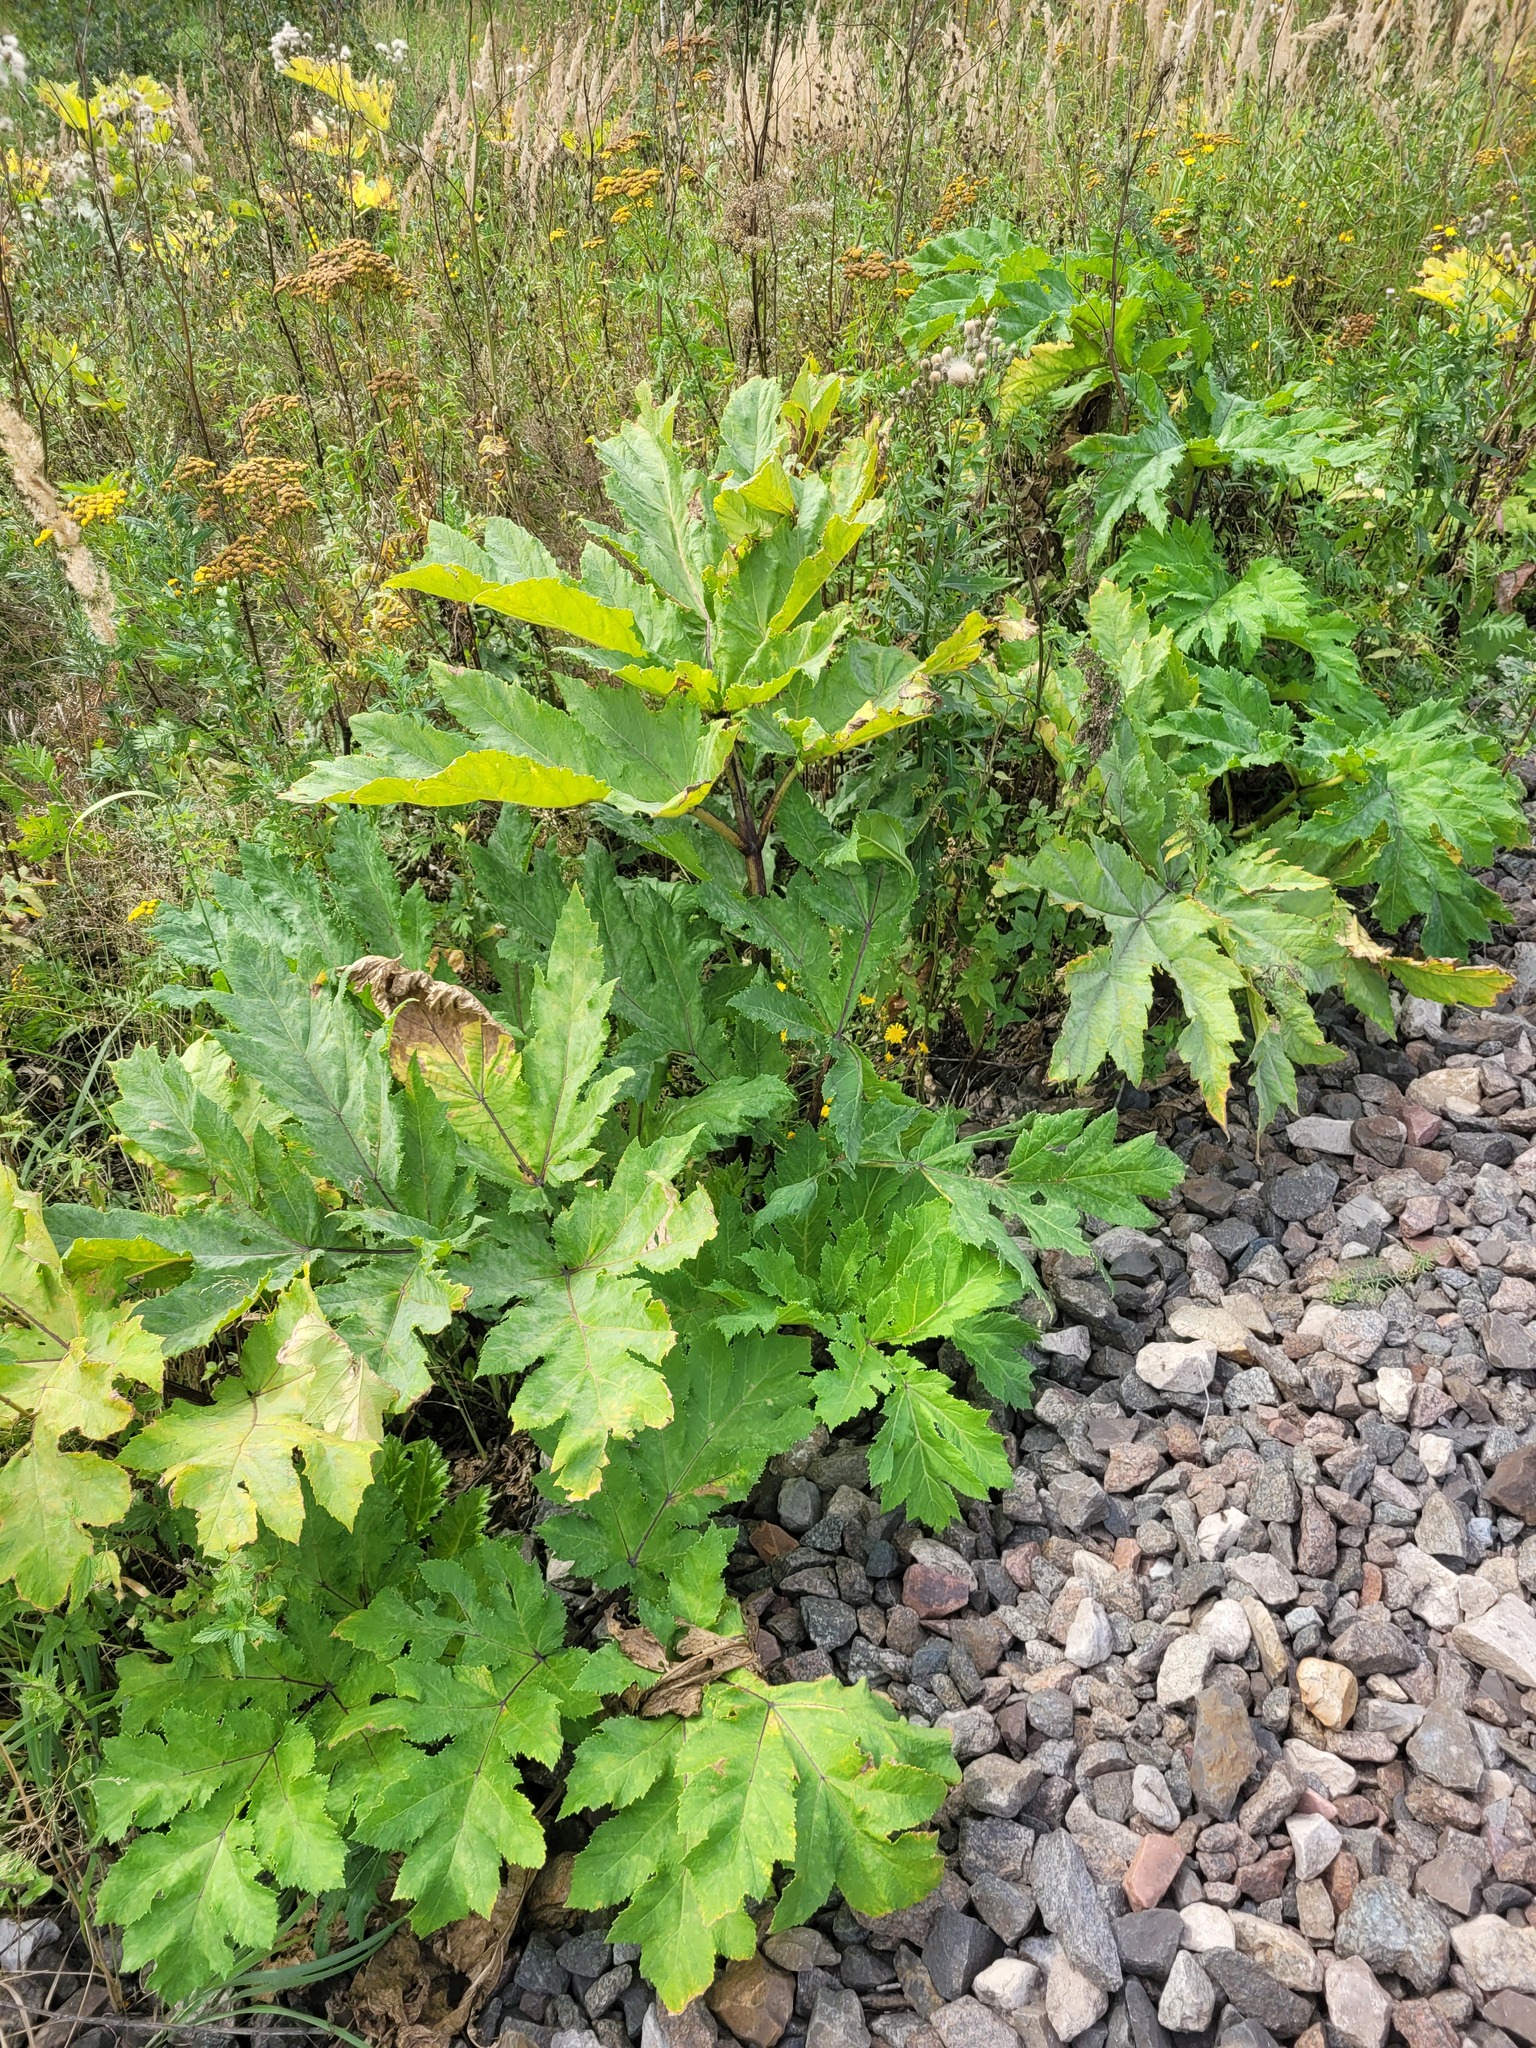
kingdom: Plantae
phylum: Tracheophyta
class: Magnoliopsida
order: Apiales
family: Apiaceae
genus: Heracleum
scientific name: Heracleum sosnowskyi
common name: Sosnowsky's hogweed
